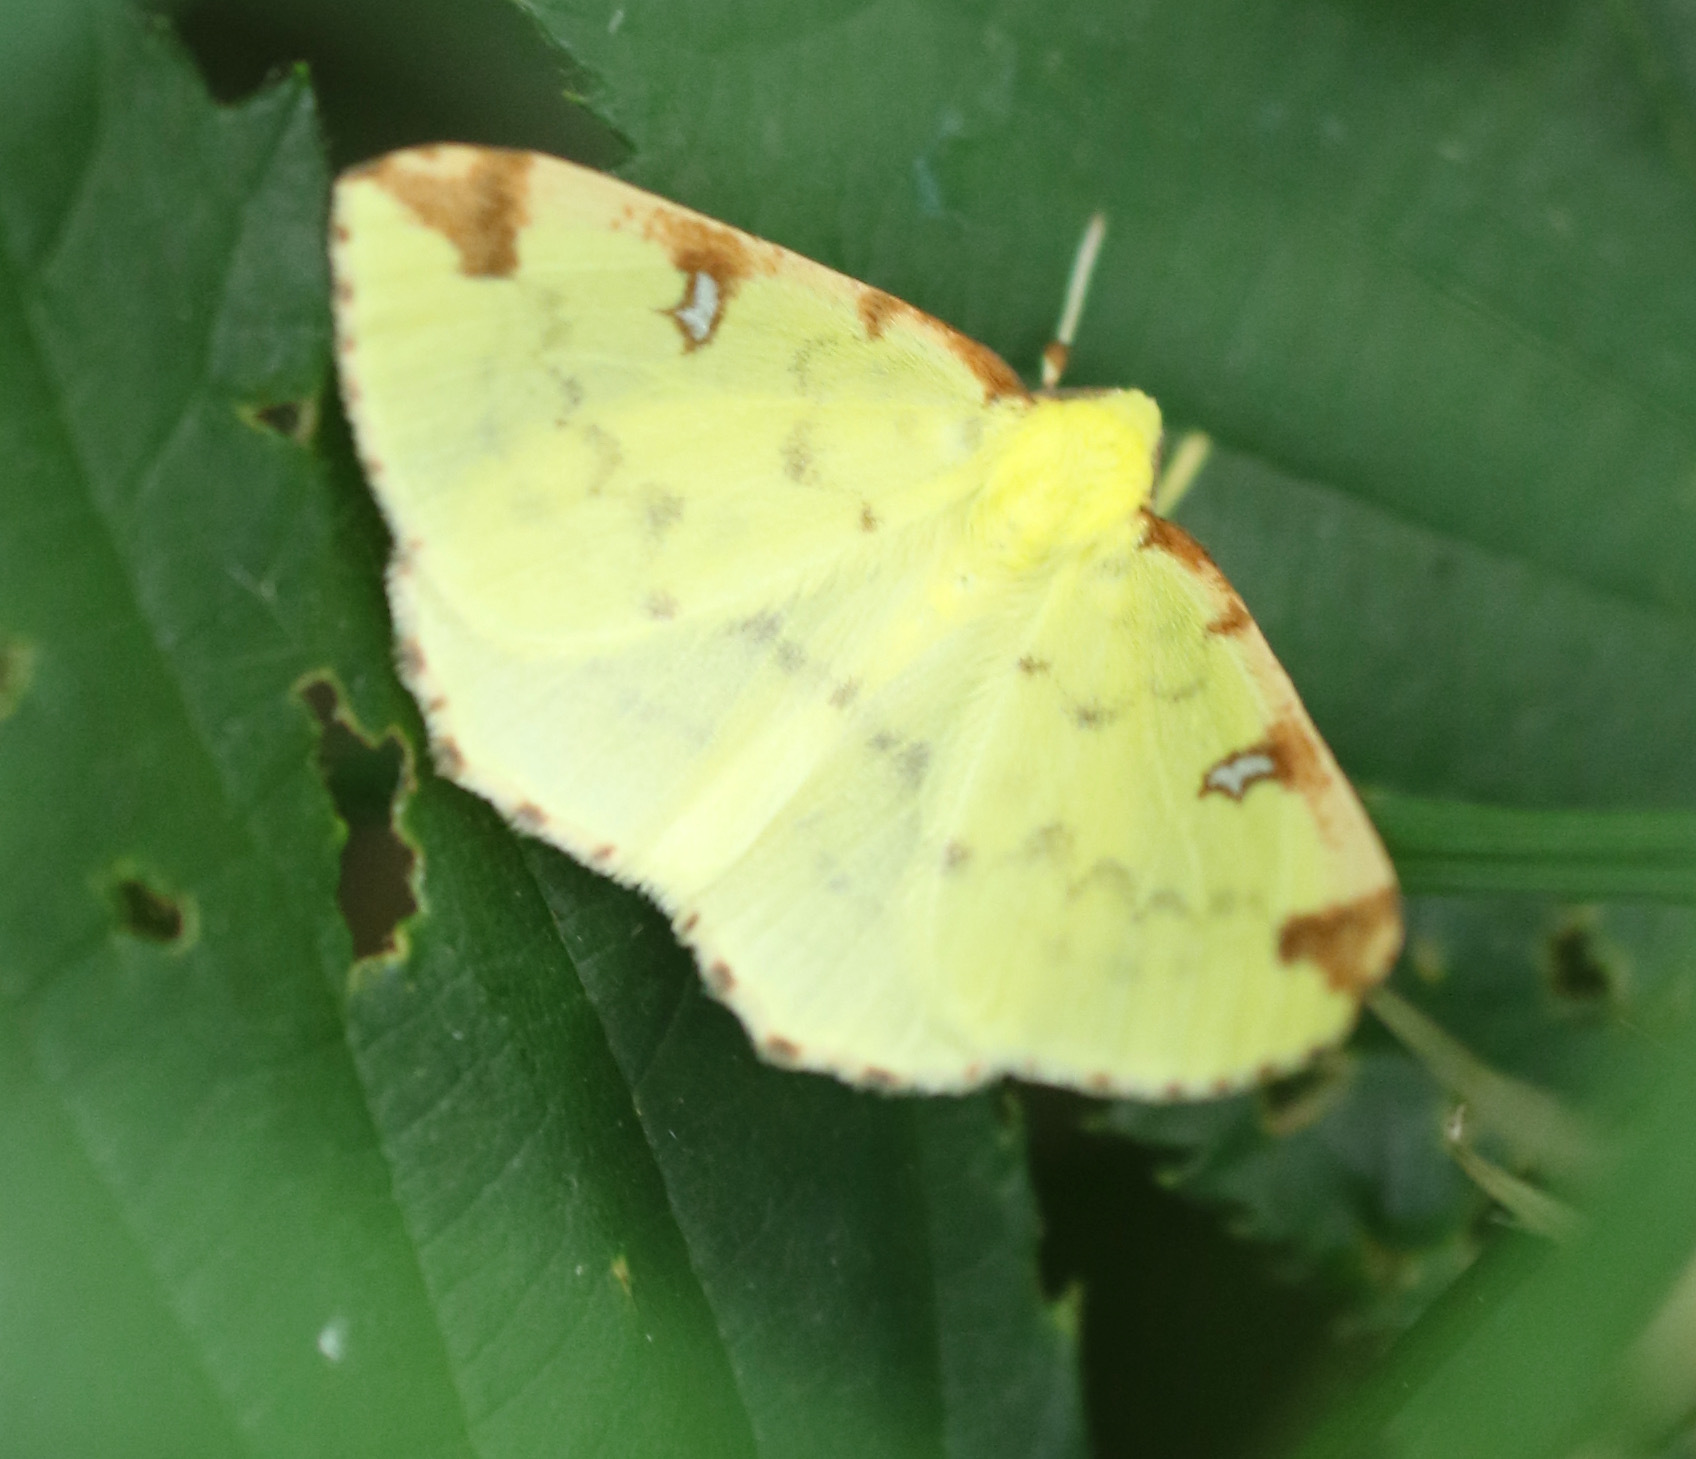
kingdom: Animalia
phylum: Arthropoda
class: Insecta
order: Lepidoptera
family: Geometridae
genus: Opisthograptis
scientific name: Opisthograptis luteolata
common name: Brimstone moth
